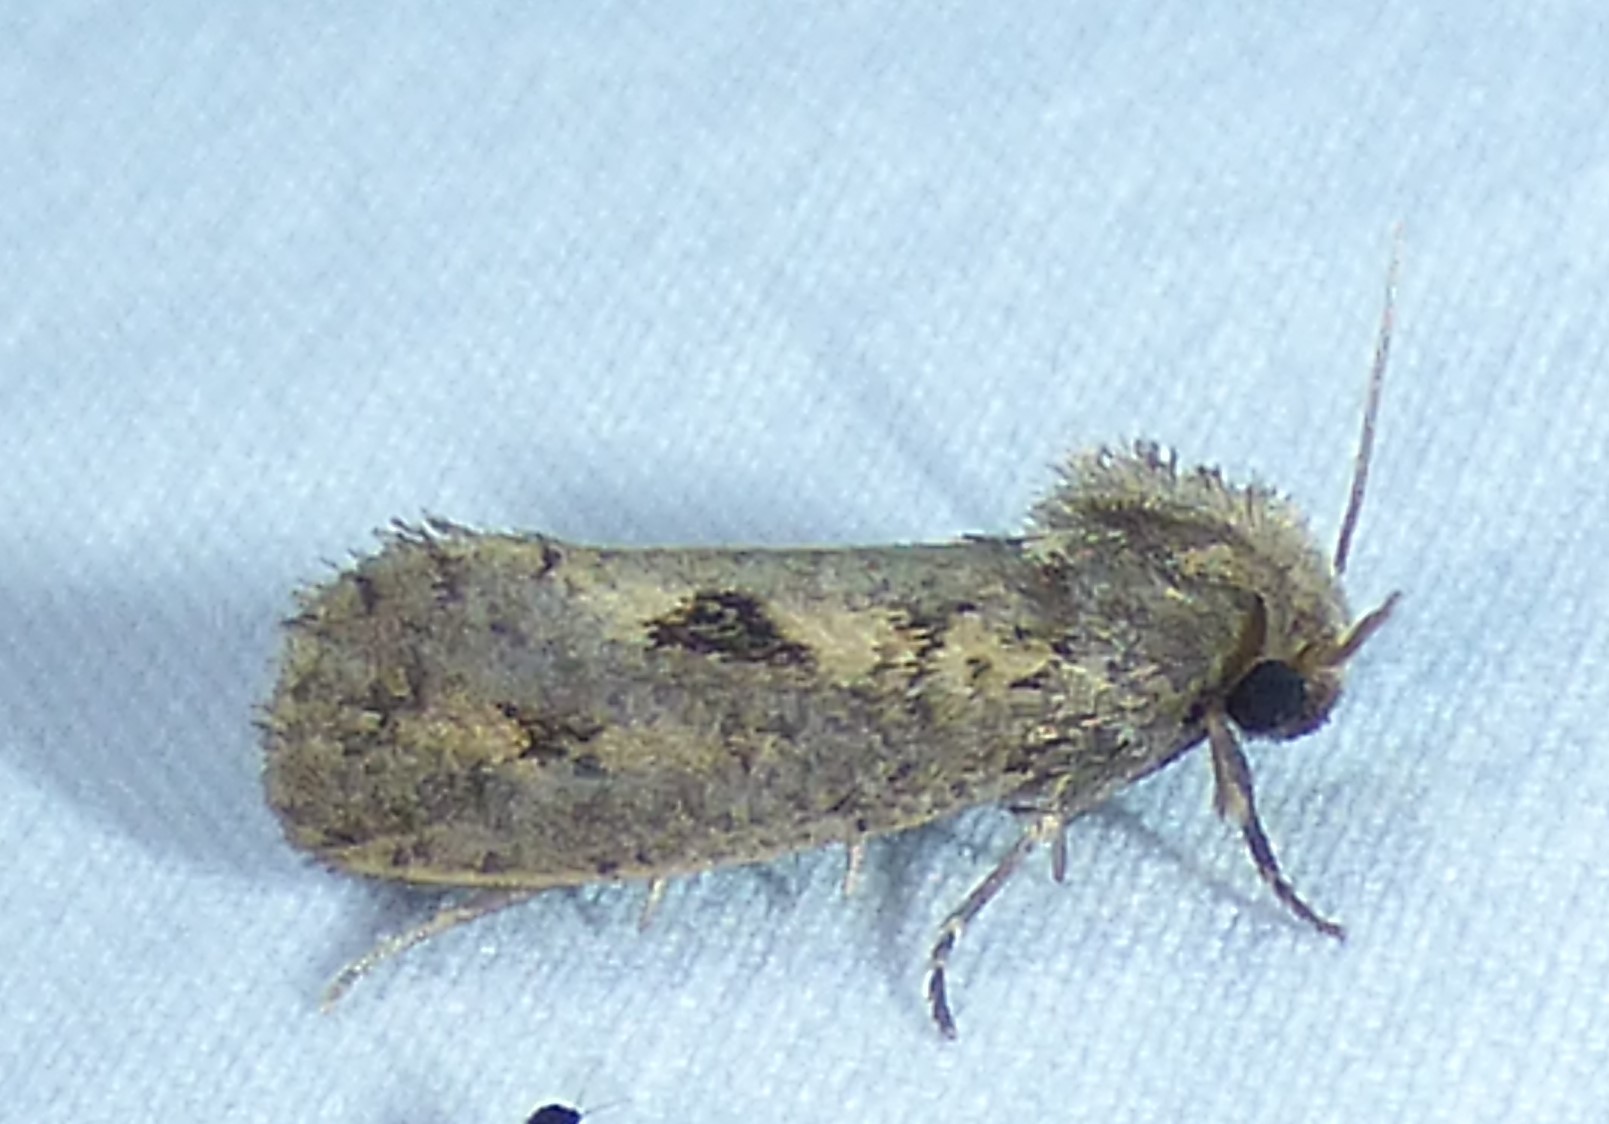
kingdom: Animalia
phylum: Arthropoda
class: Insecta
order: Lepidoptera
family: Tineidae
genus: Acrolophus
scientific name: Acrolophus popeanella
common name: Clemens' grass tubeworm moth
